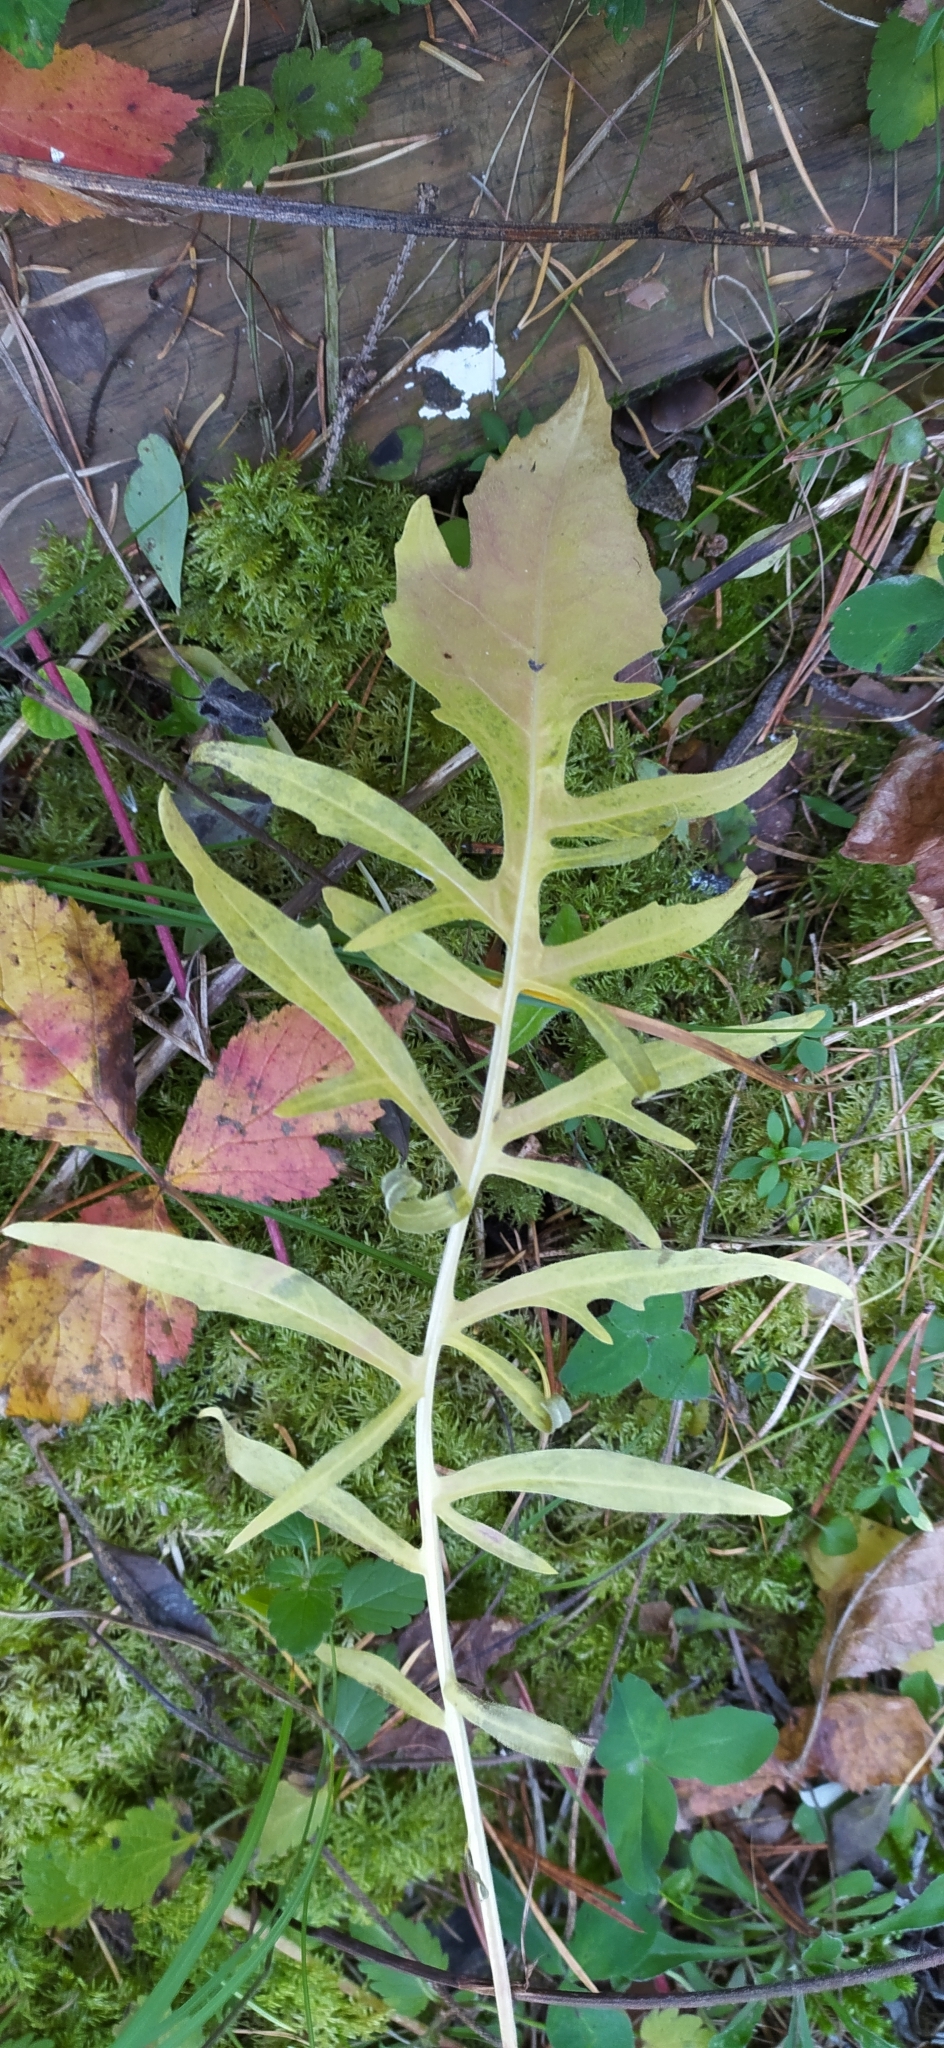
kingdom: Plantae
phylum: Tracheophyta
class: Magnoliopsida
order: Asterales
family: Asteraceae
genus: Centaurea
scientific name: Centaurea scabiosa
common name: Greater knapweed
